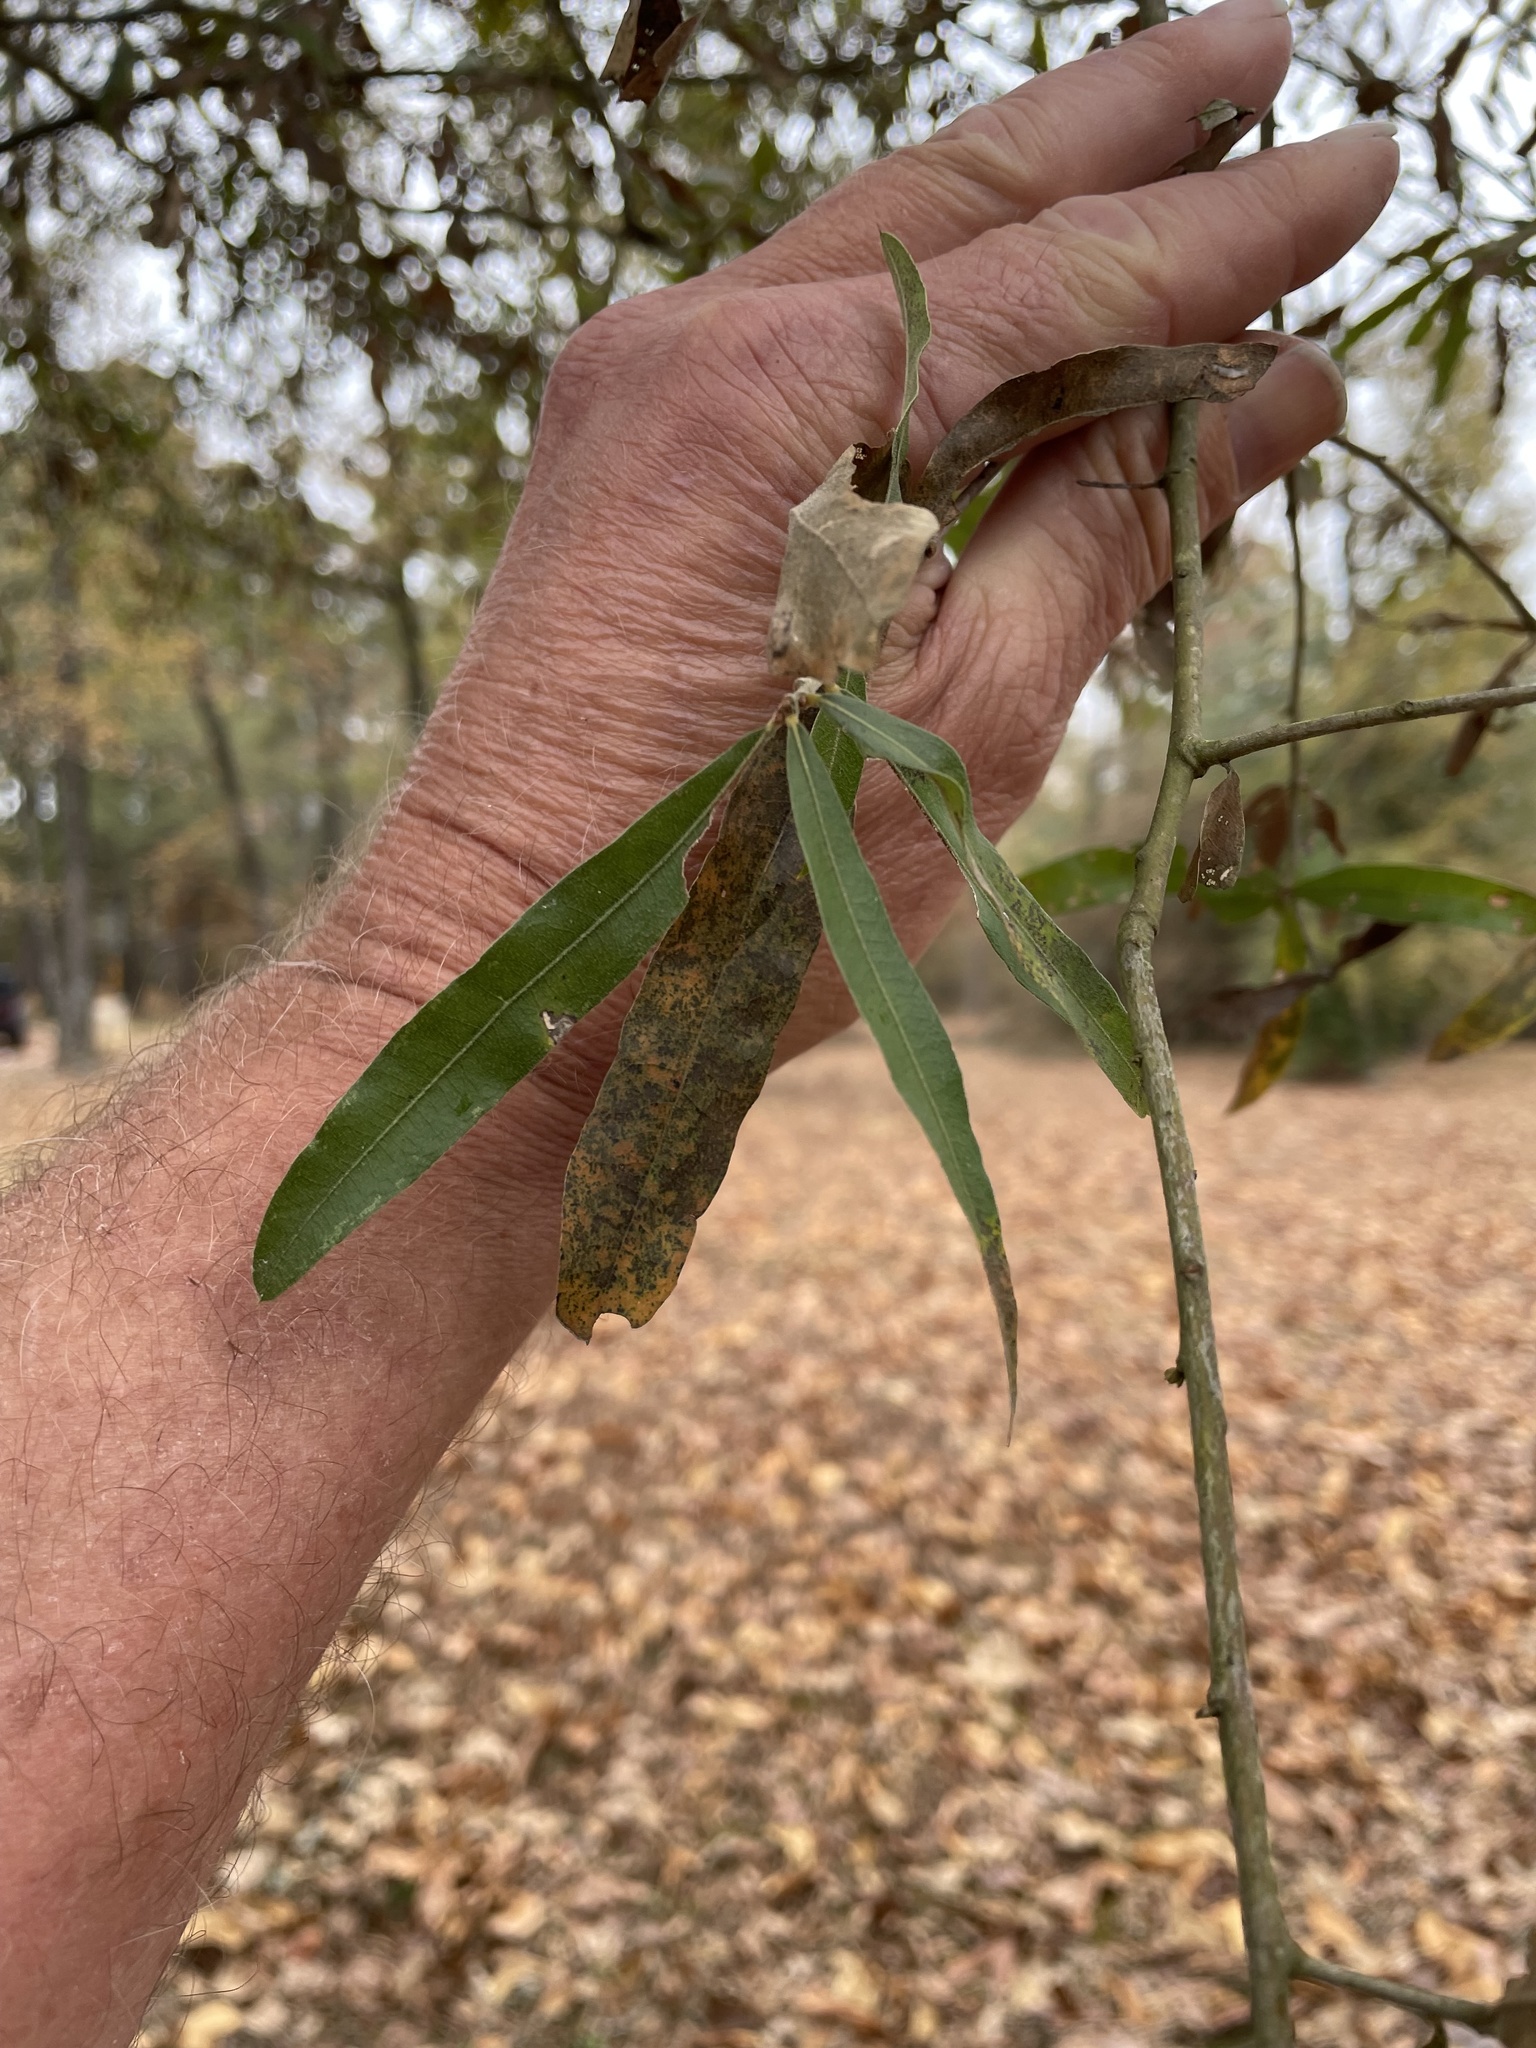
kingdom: Plantae
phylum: Tracheophyta
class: Magnoliopsida
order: Fagales
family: Fagaceae
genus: Quercus
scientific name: Quercus phellos
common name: Willow oak
